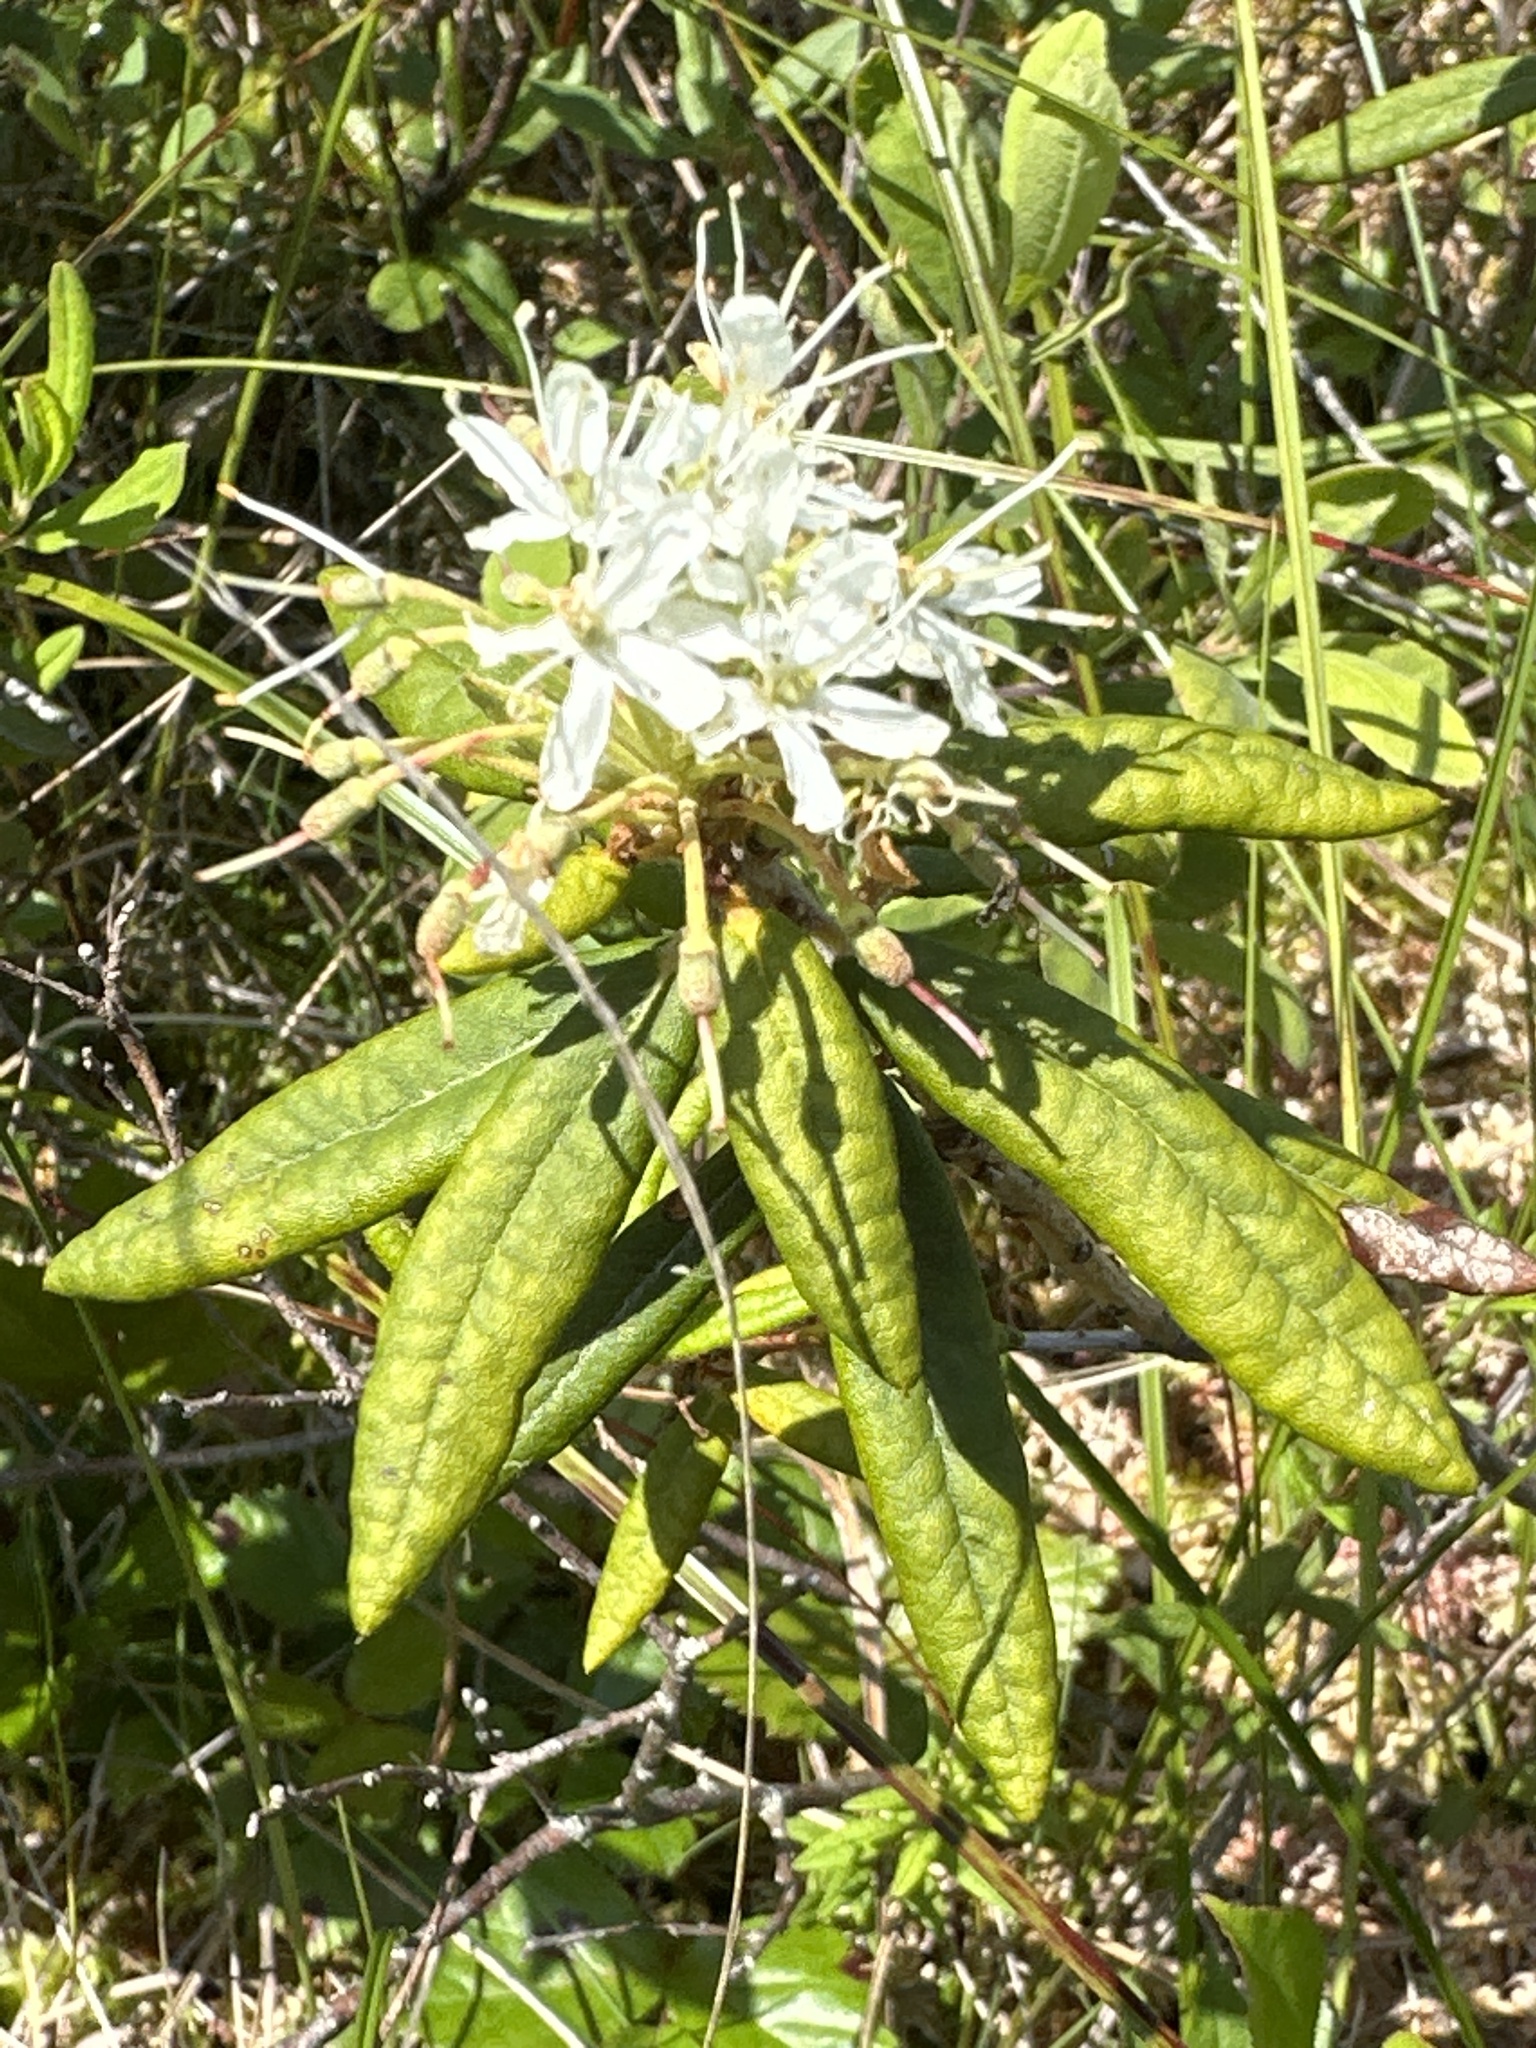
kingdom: Plantae
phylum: Tracheophyta
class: Magnoliopsida
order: Ericales
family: Ericaceae
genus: Rhododendron
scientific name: Rhododendron groenlandicum
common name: Bog labrador tea
